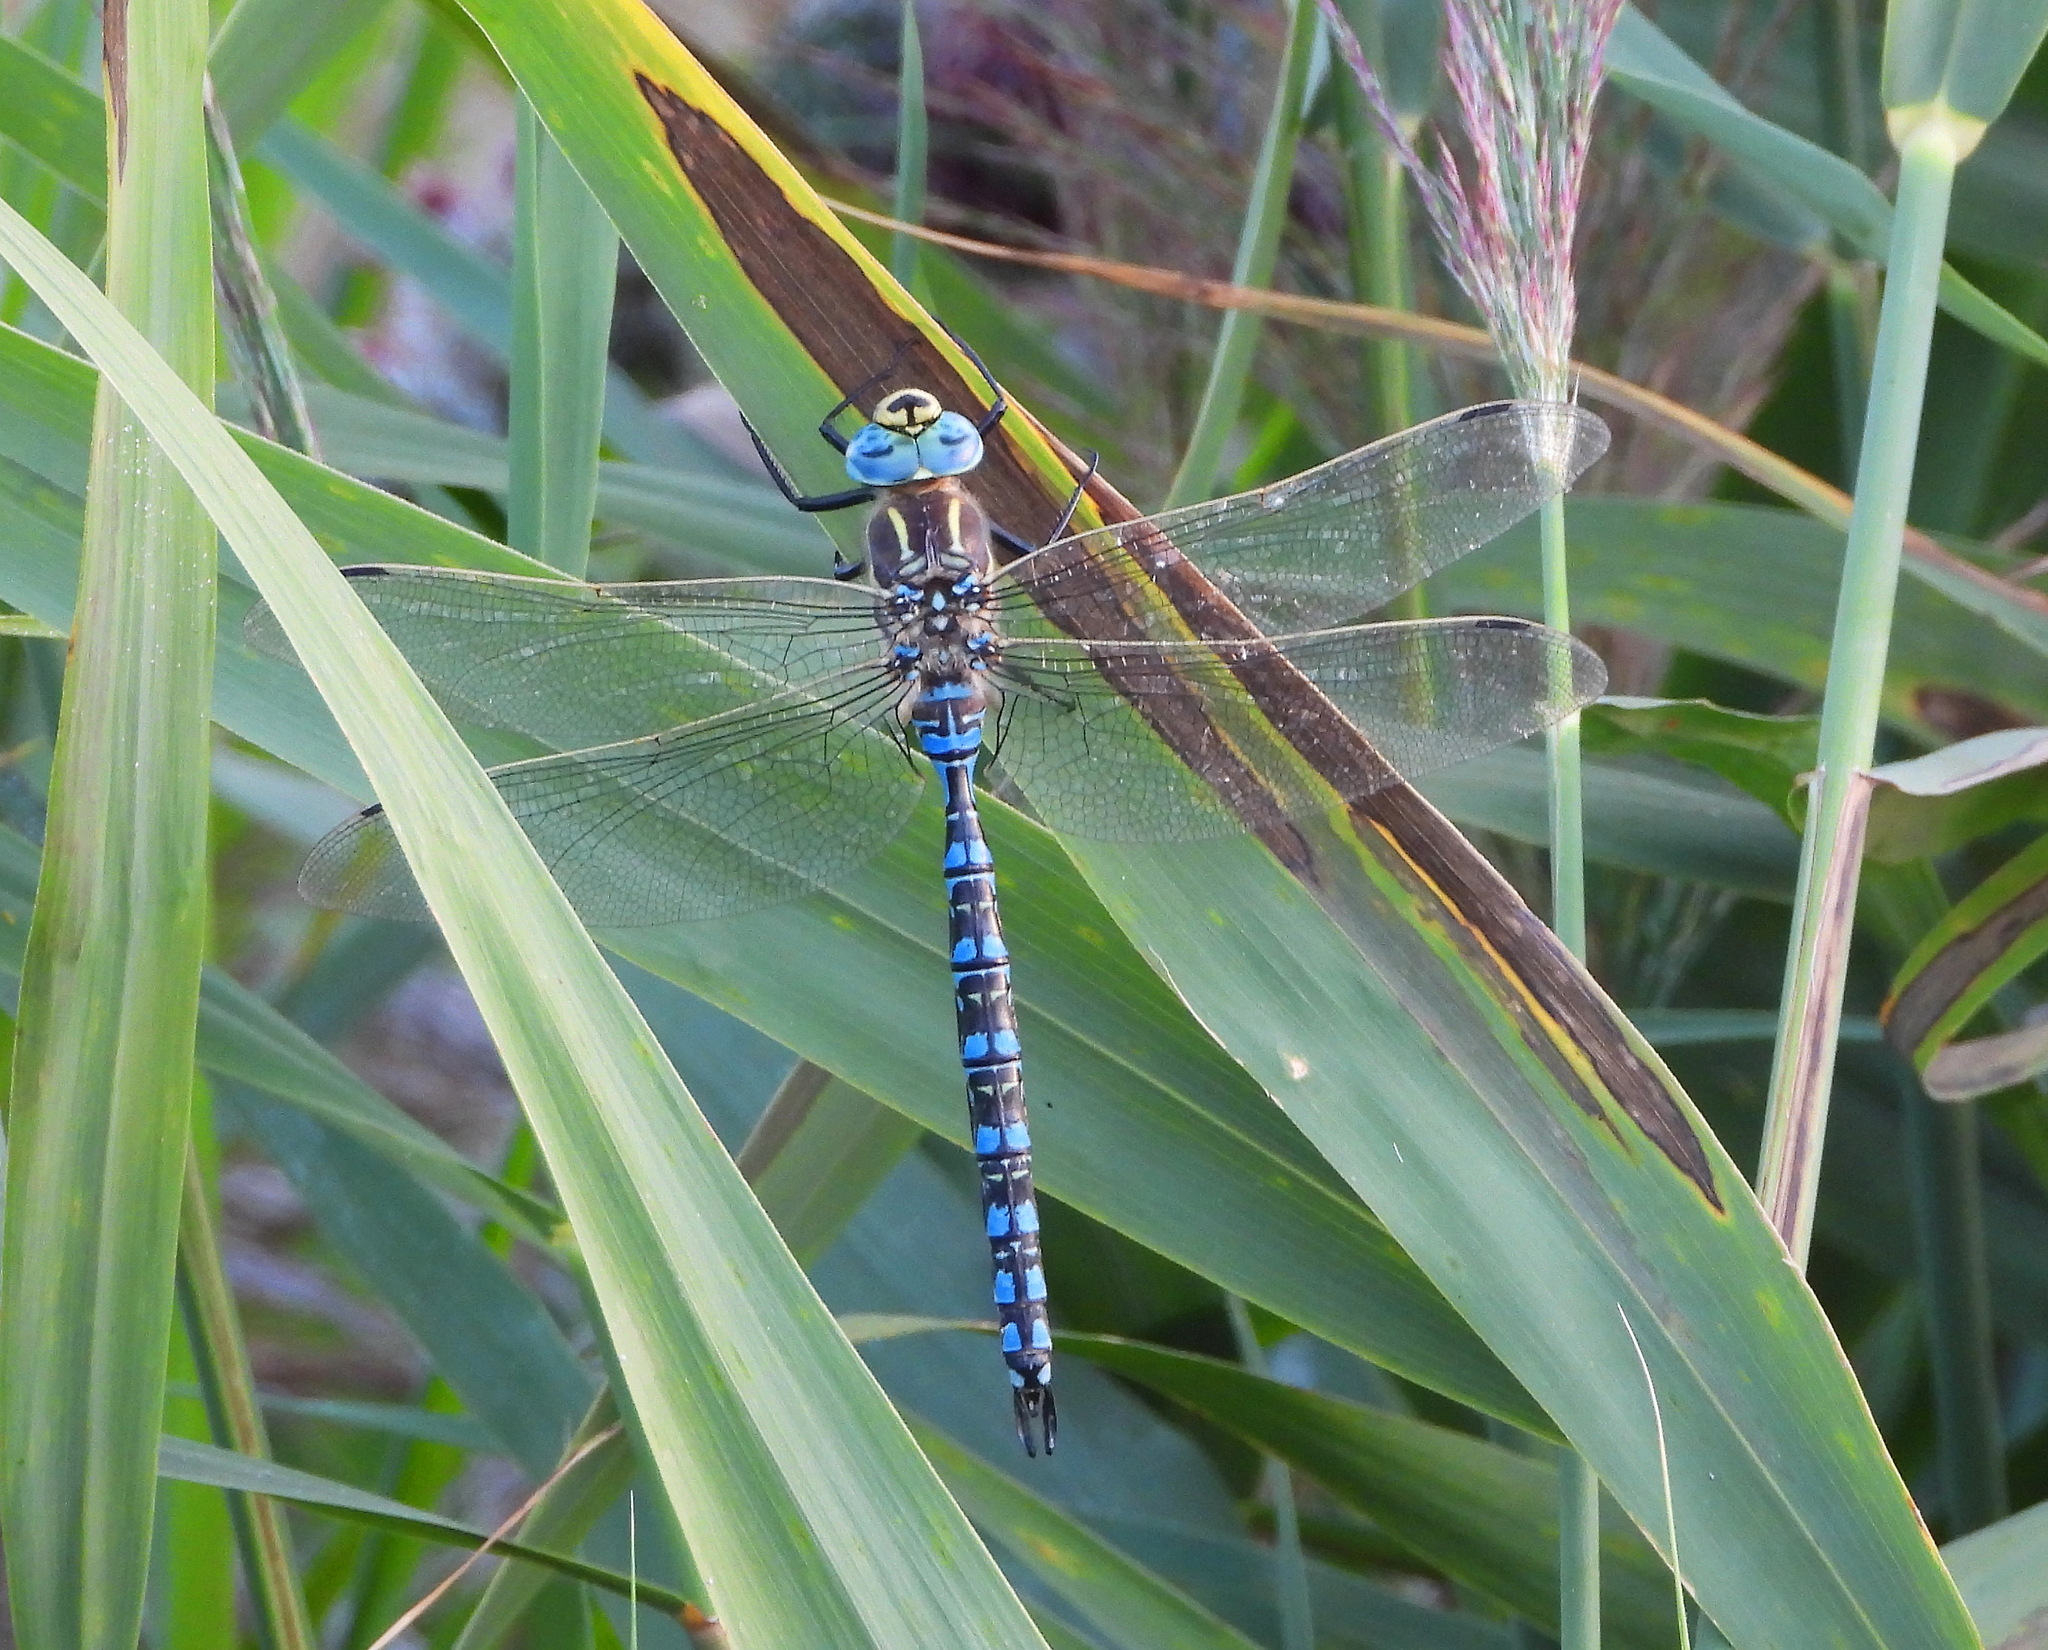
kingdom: Animalia
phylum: Arthropoda
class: Insecta
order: Odonata
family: Aeshnidae
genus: Aeshna
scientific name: Aeshna serrata
